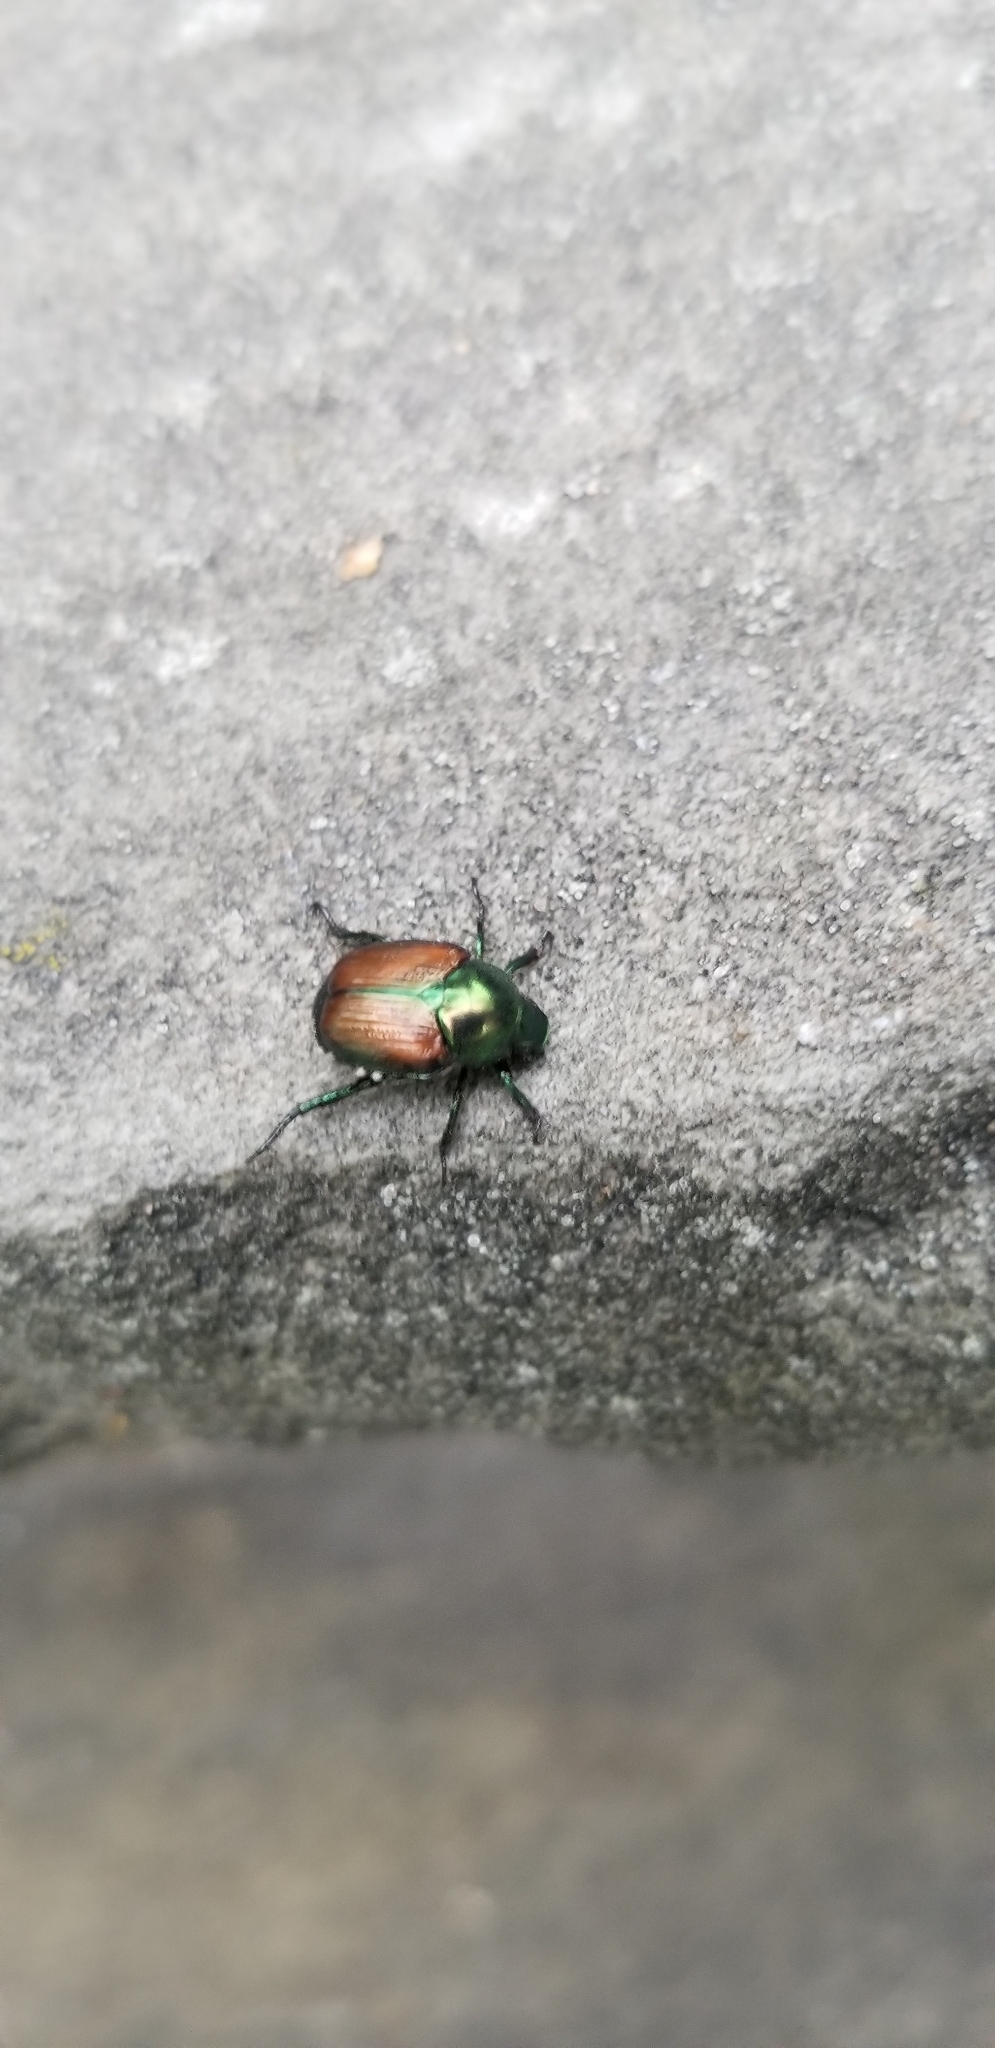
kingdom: Animalia
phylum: Arthropoda
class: Insecta
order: Coleoptera
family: Scarabaeidae
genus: Popillia
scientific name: Popillia japonica
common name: Japanese beetle
